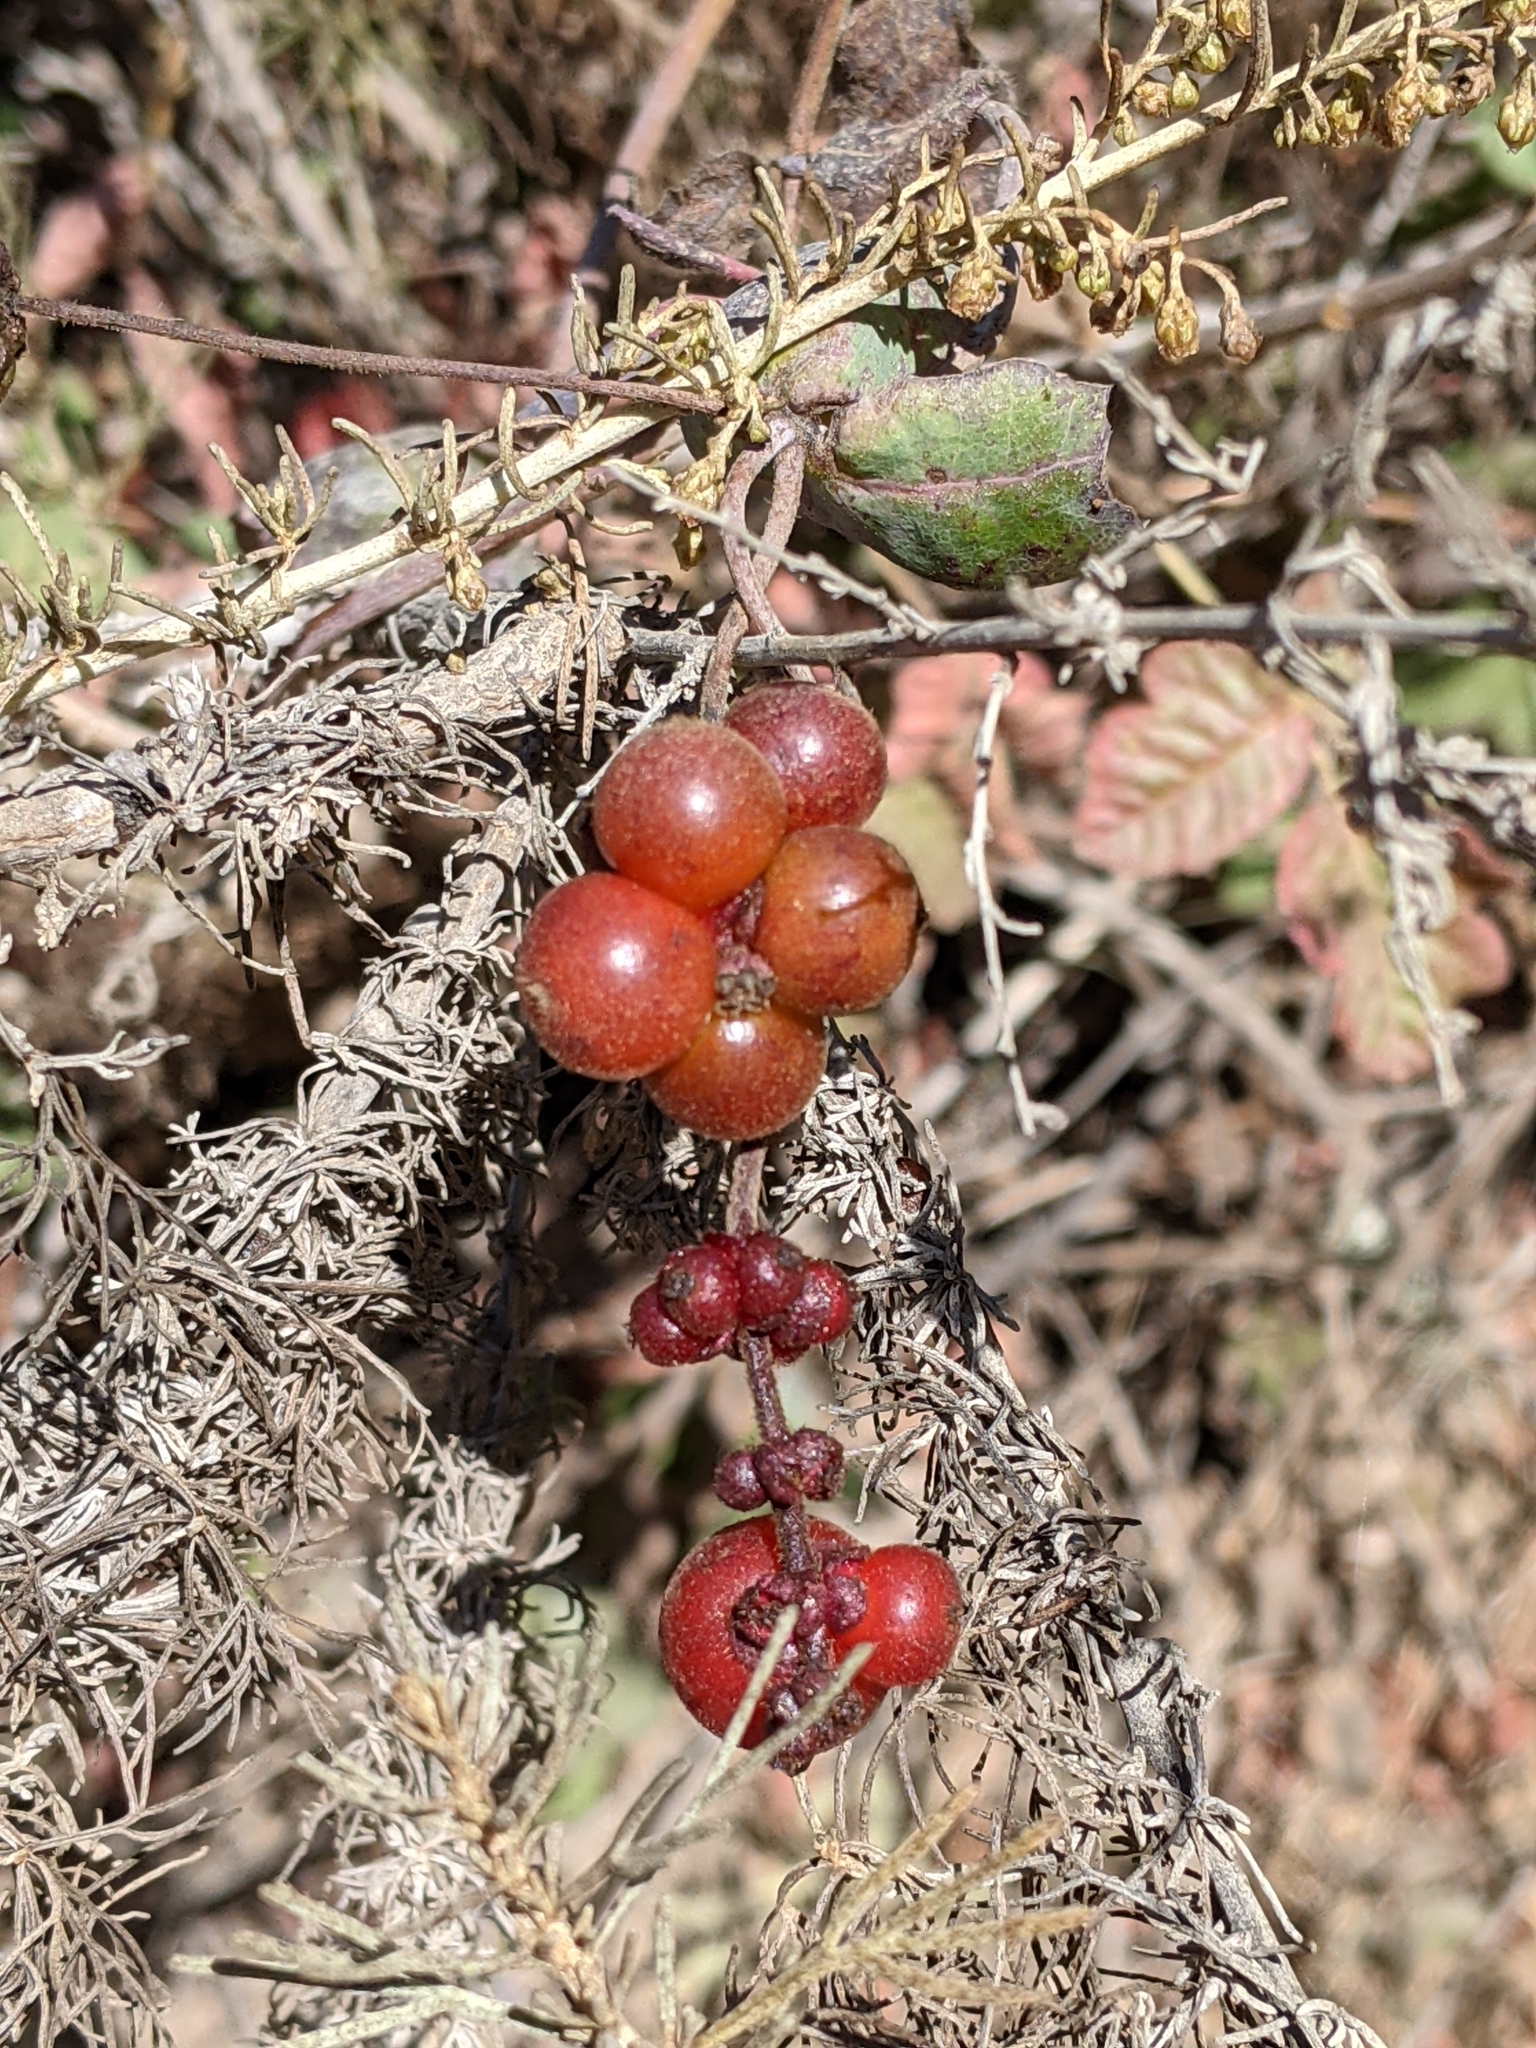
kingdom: Plantae
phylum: Tracheophyta
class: Magnoliopsida
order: Dipsacales
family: Caprifoliaceae
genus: Lonicera
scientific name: Lonicera hispidula
